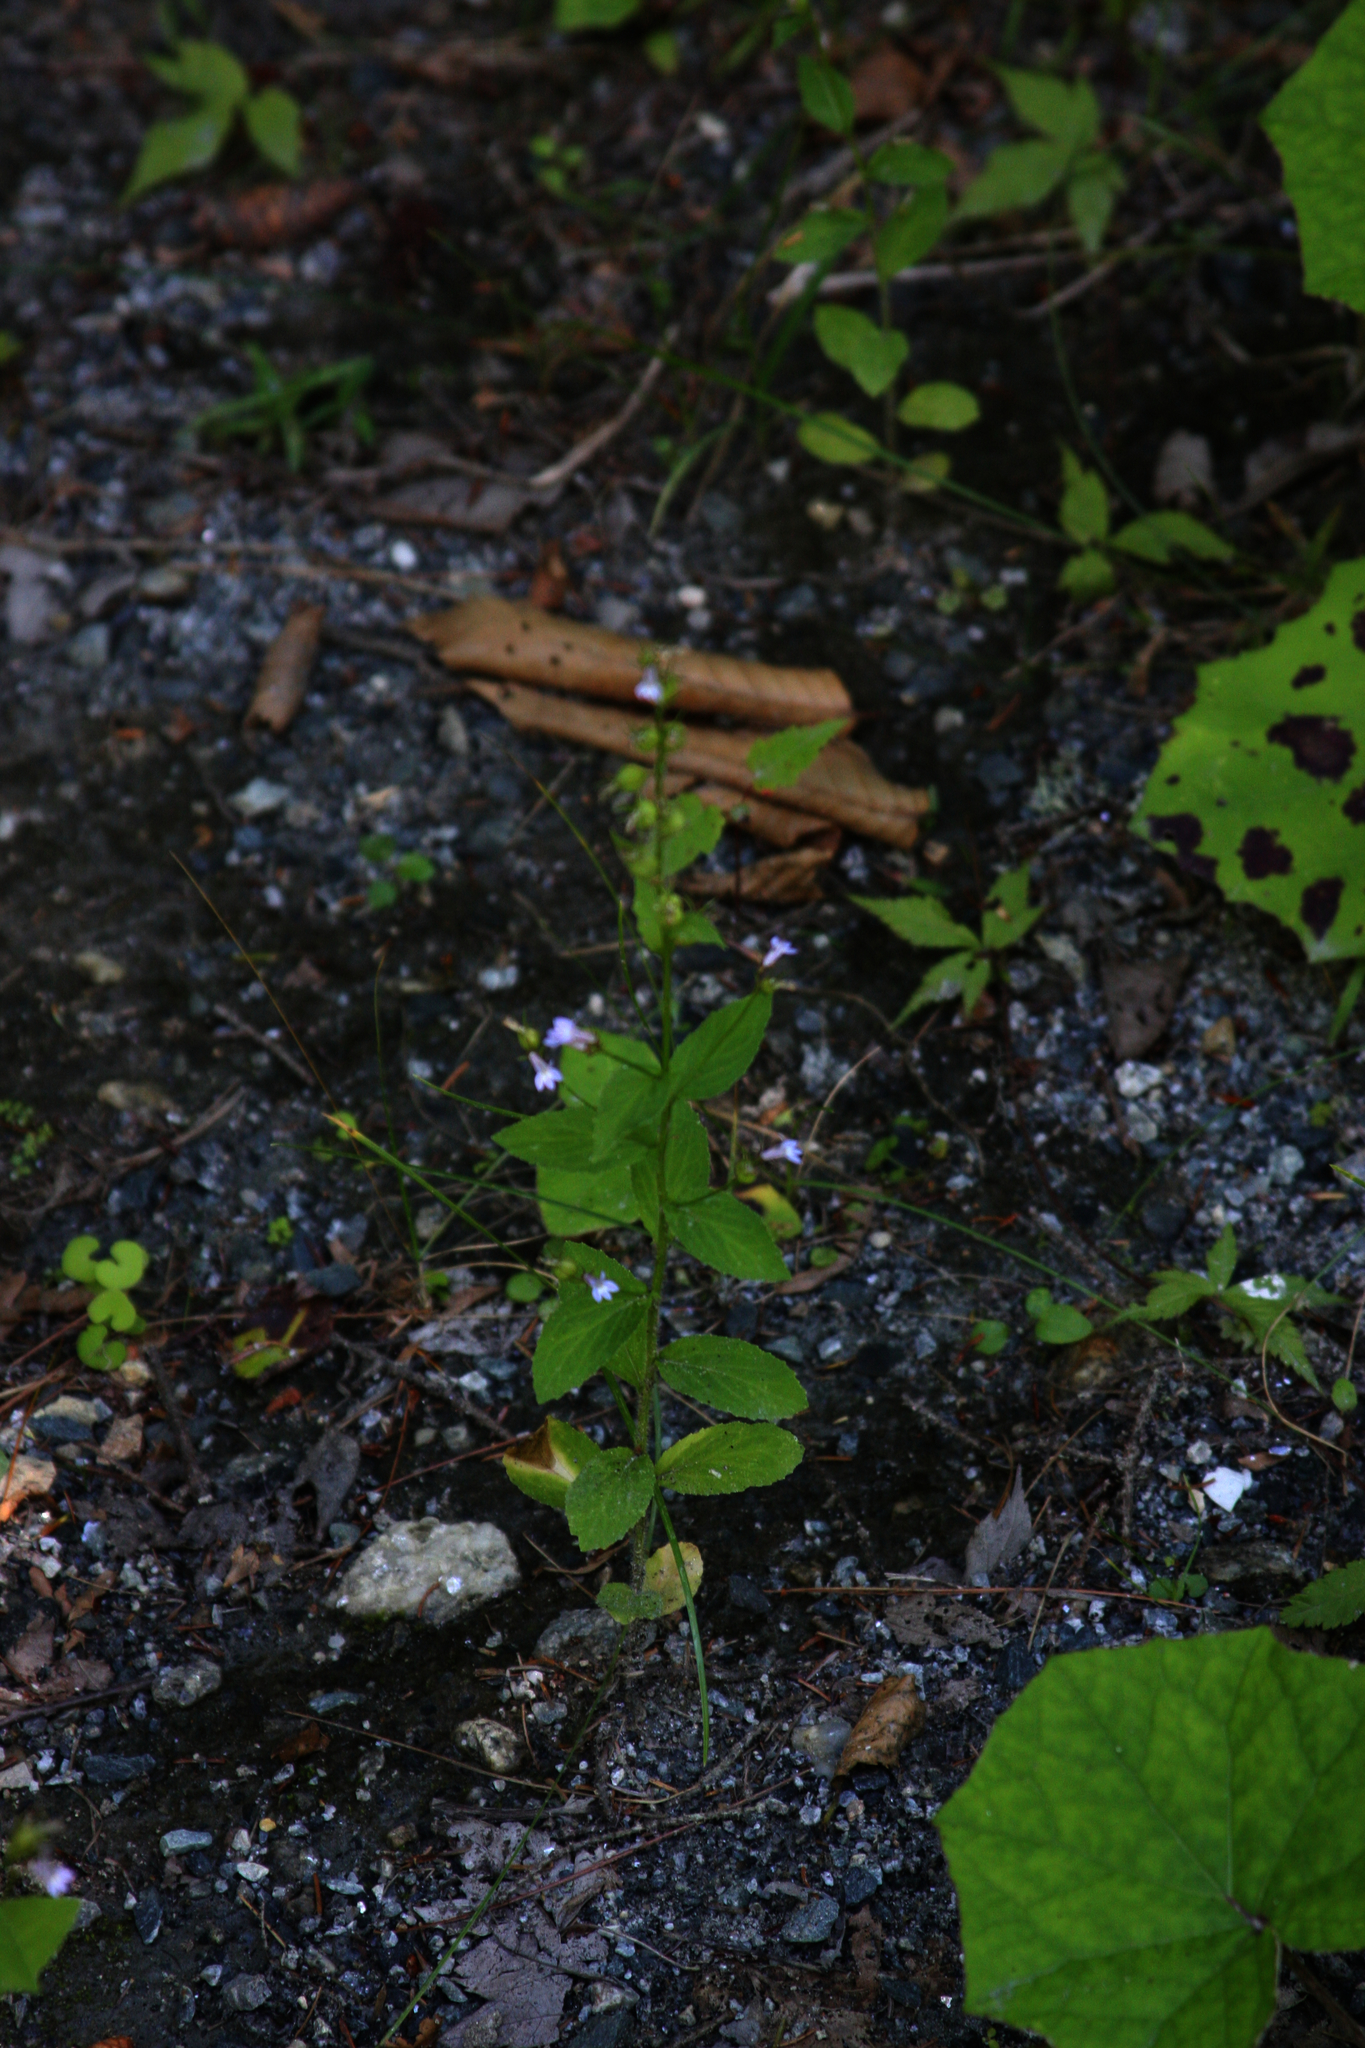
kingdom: Plantae
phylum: Tracheophyta
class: Magnoliopsida
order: Asterales
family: Campanulaceae
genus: Lobelia
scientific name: Lobelia inflata
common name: Indian tobacco
